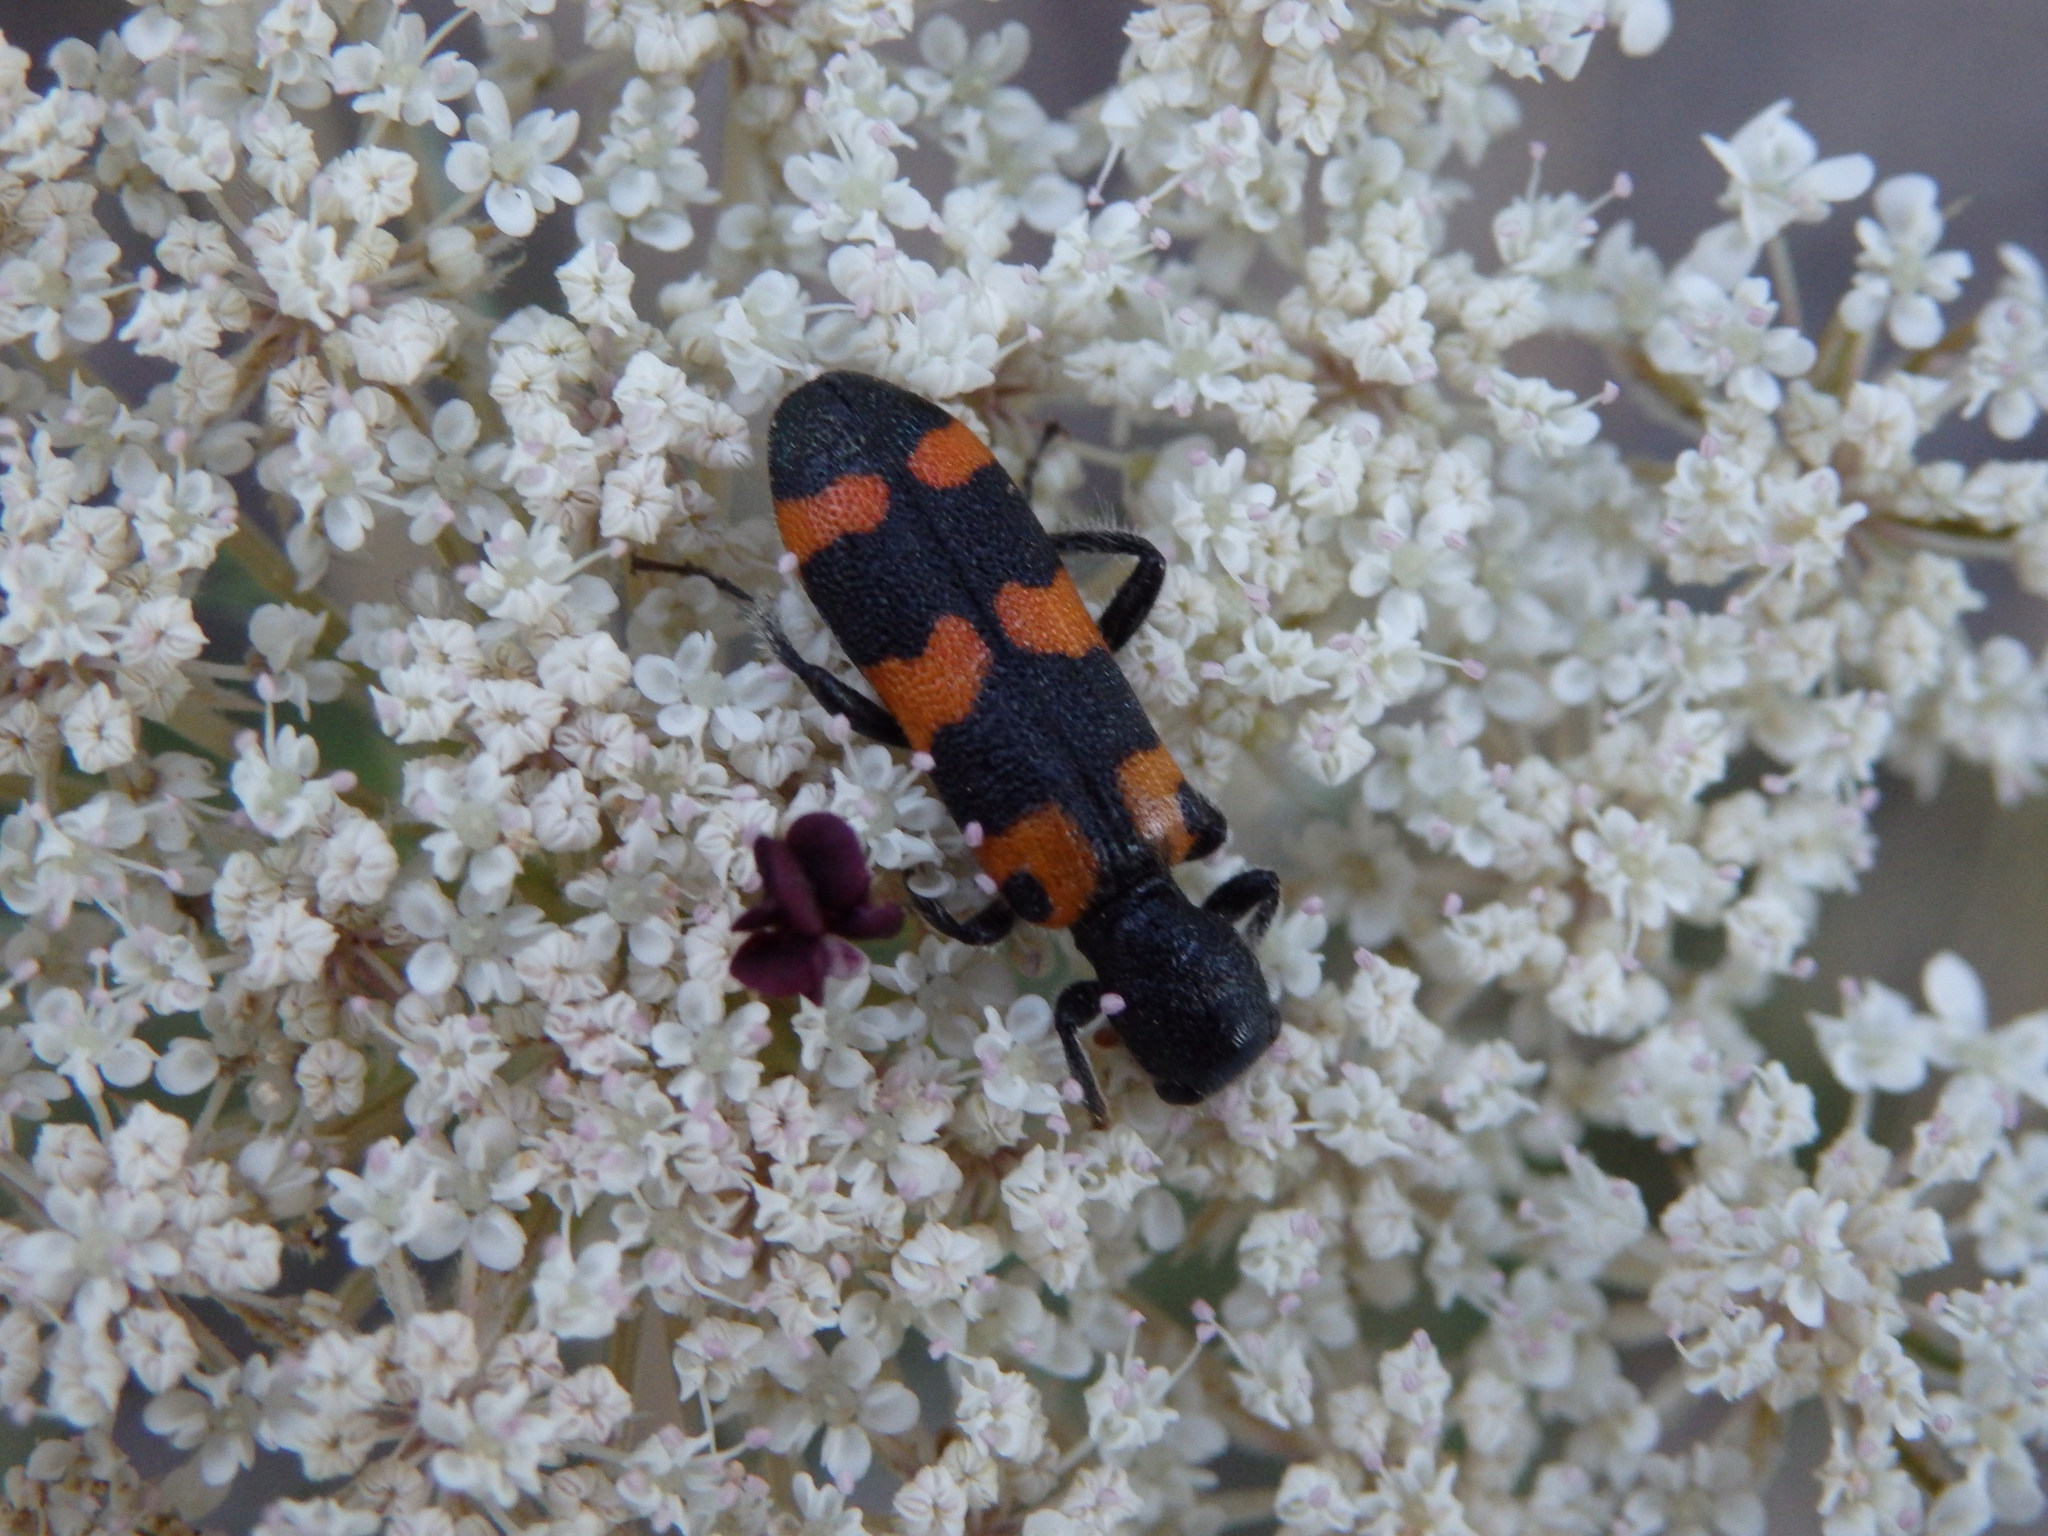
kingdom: Animalia
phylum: Arthropoda
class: Insecta
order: Coleoptera
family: Cleridae
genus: Trichodes
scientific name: Trichodes leucopsideus
